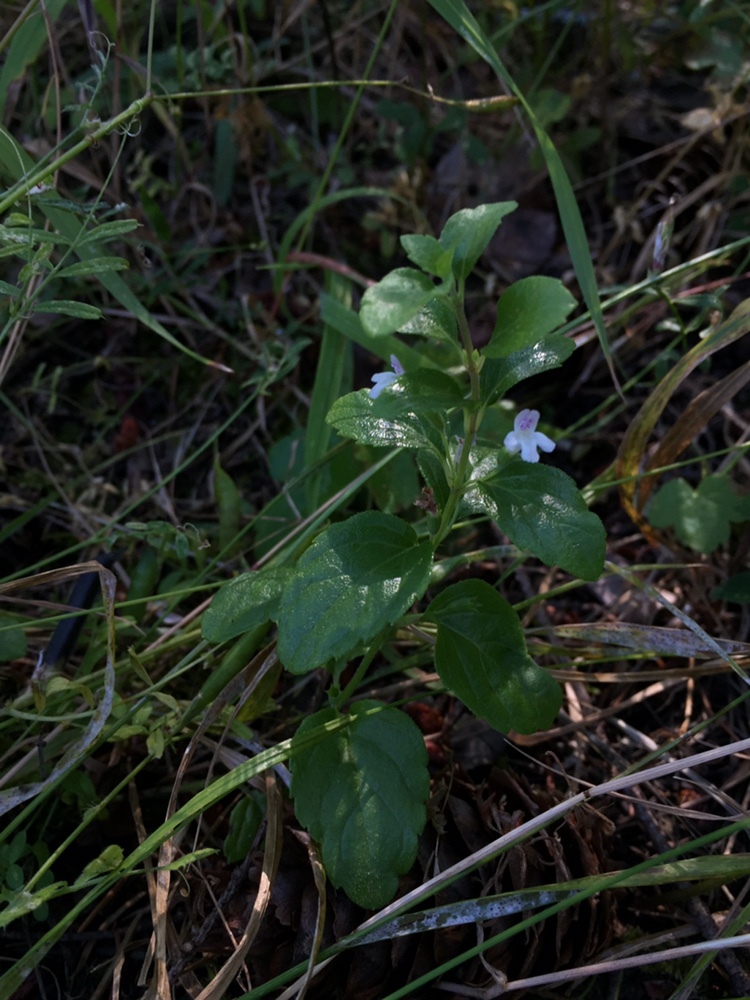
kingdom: Plantae
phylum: Tracheophyta
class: Magnoliopsida
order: Lamiales
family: Lamiaceae
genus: Micromeria
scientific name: Micromeria douglasii
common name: Yerba buena
